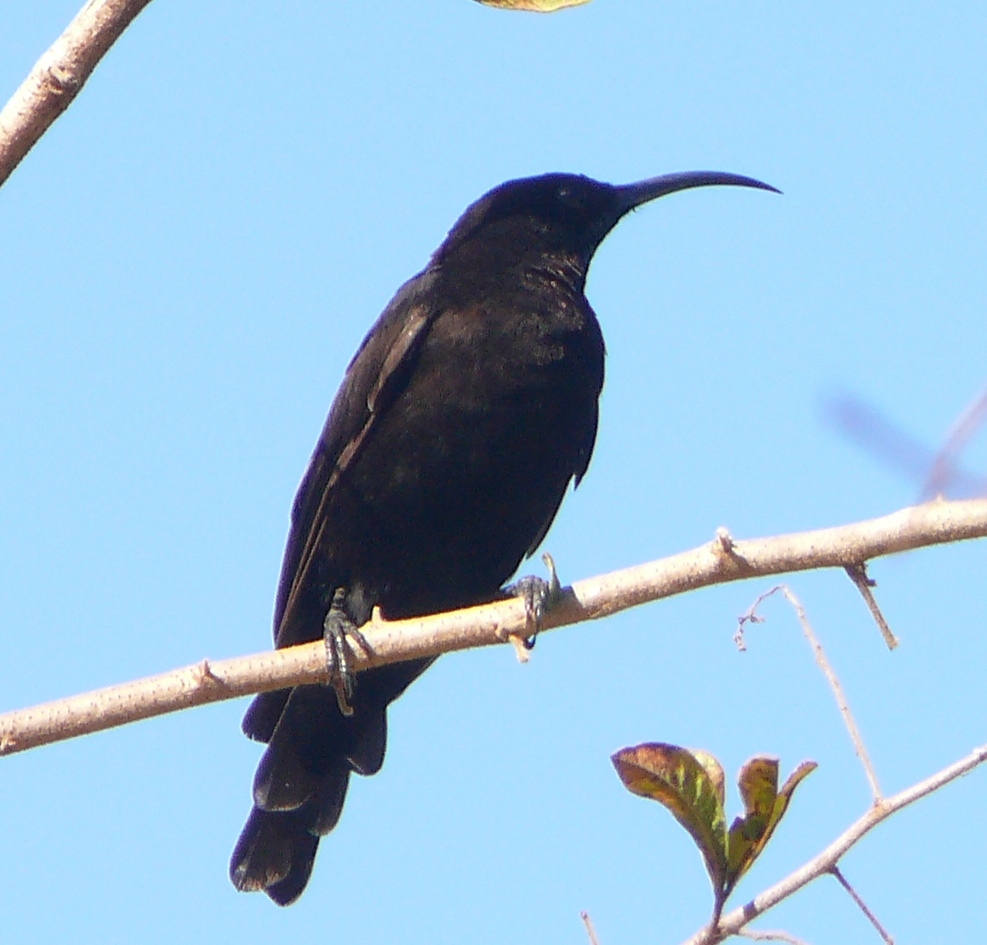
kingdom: Animalia
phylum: Chordata
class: Aves
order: Passeriformes
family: Nectariniidae
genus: Chalcomitra
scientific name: Chalcomitra amethystina
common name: Amethyst sunbird
